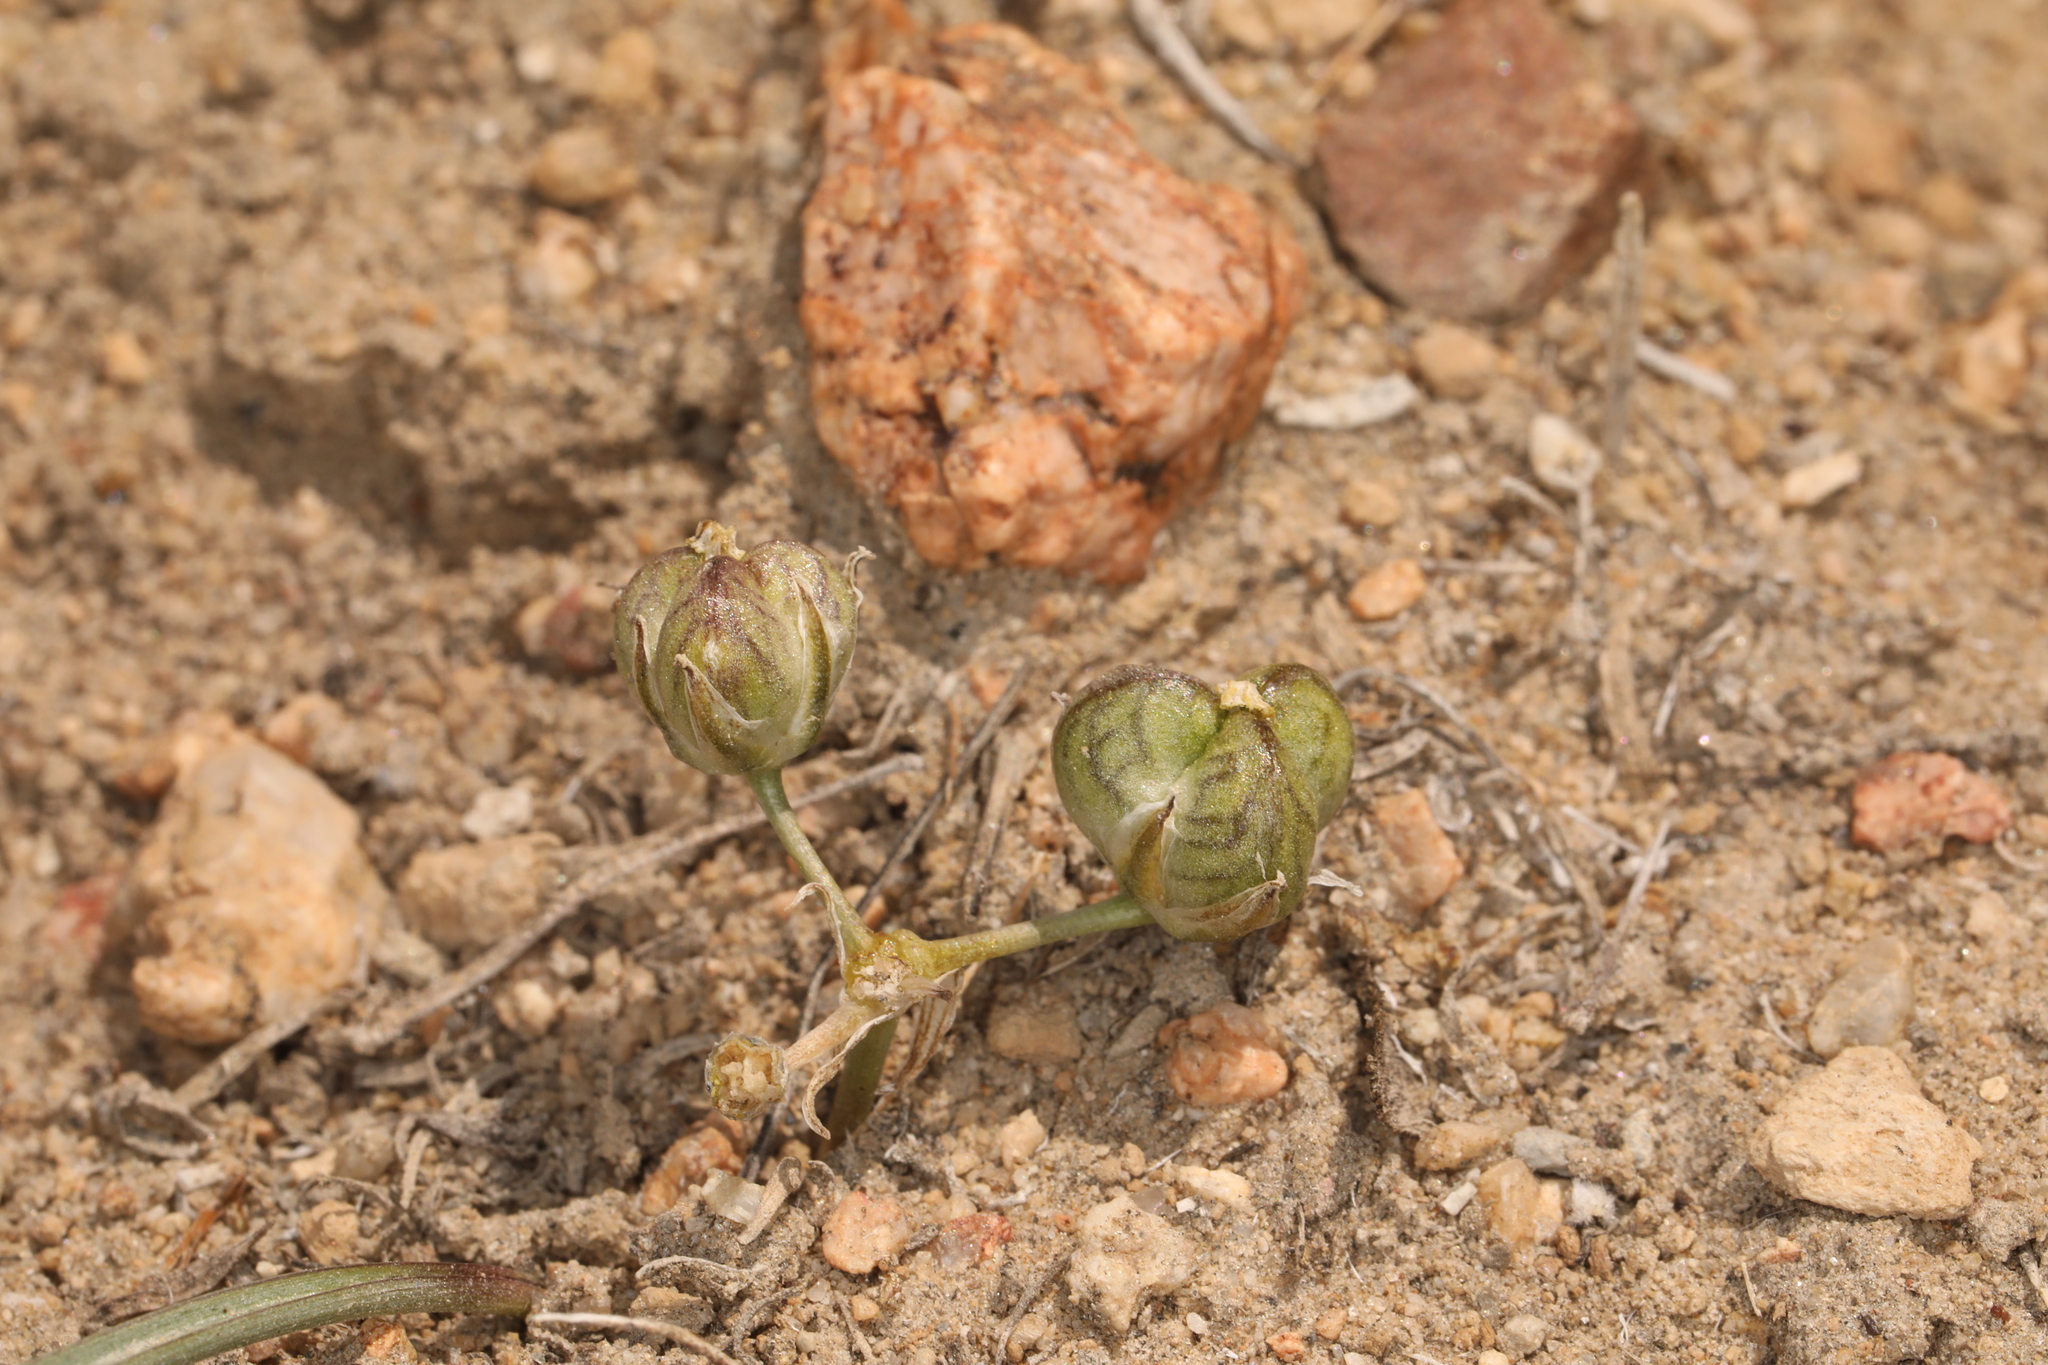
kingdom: Plantae
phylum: Tracheophyta
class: Liliopsida
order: Asparagales
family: Asparagaceae
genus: Muilla
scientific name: Muilla coronata
